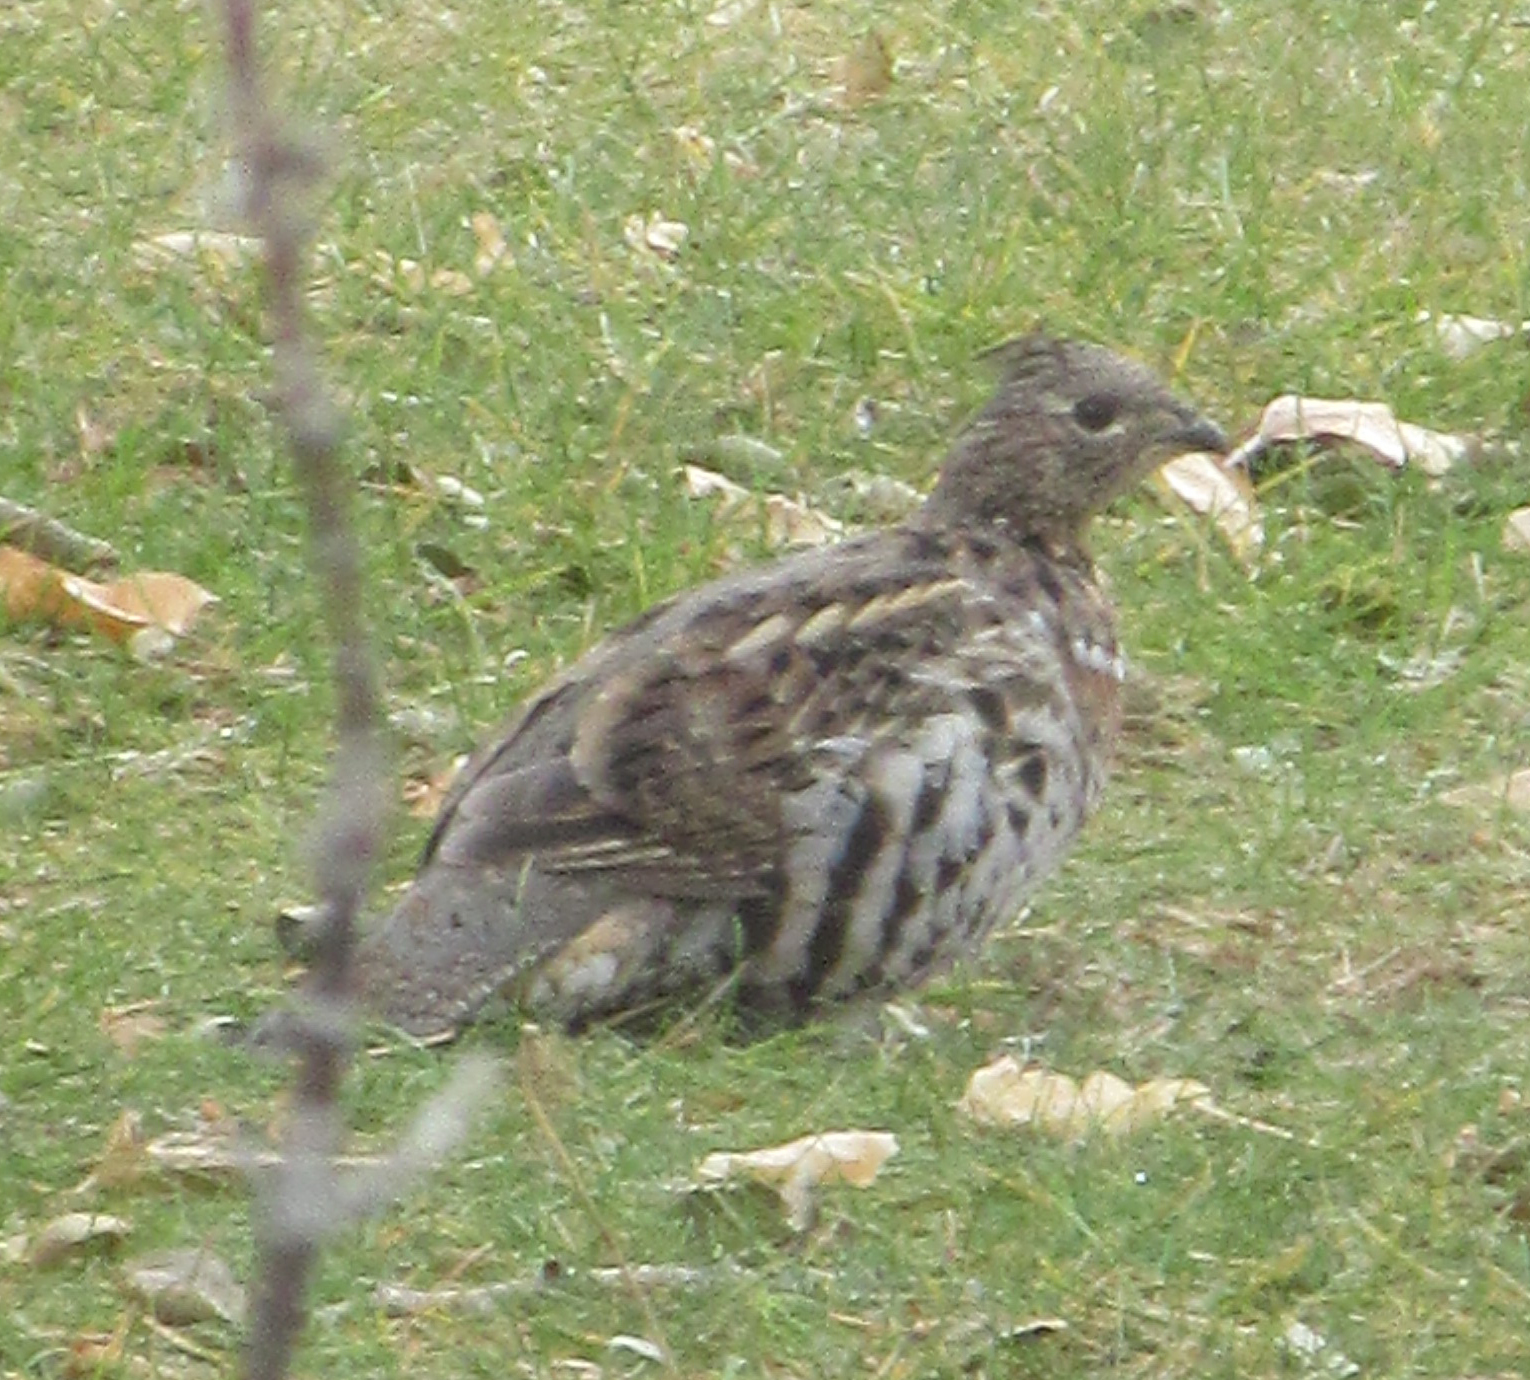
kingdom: Animalia
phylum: Chordata
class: Aves
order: Galliformes
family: Phasianidae
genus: Bonasa
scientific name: Bonasa umbellus
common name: Ruffed grouse
